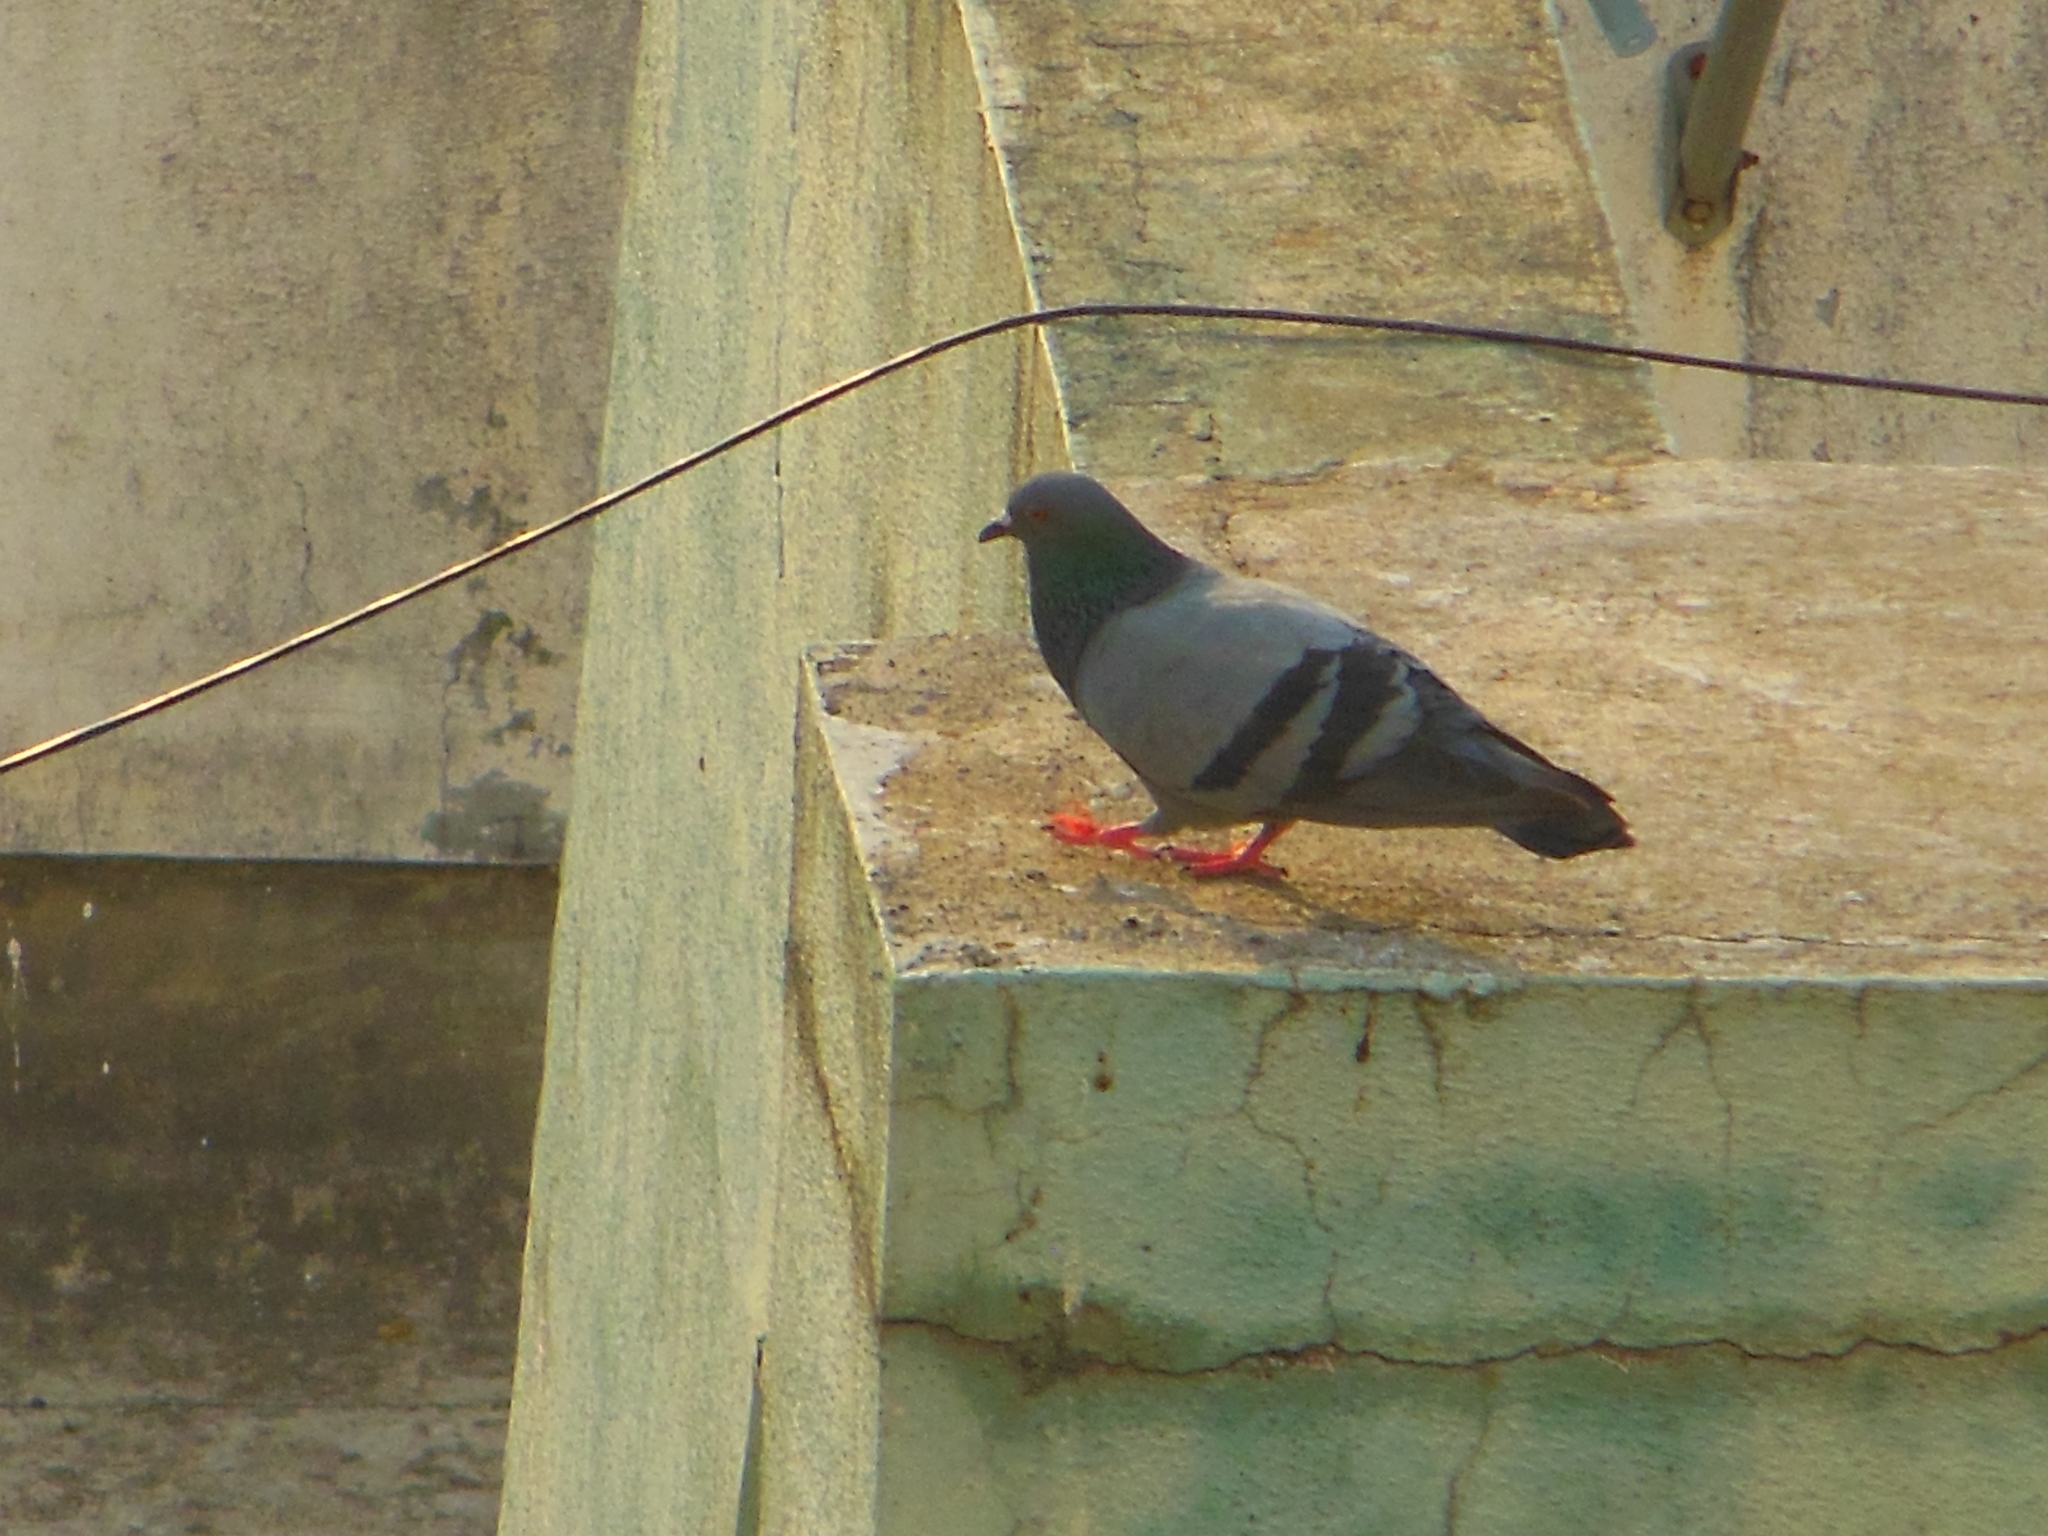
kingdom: Animalia
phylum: Chordata
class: Aves
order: Columbiformes
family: Columbidae
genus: Columba
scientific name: Columba livia
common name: Rock pigeon
